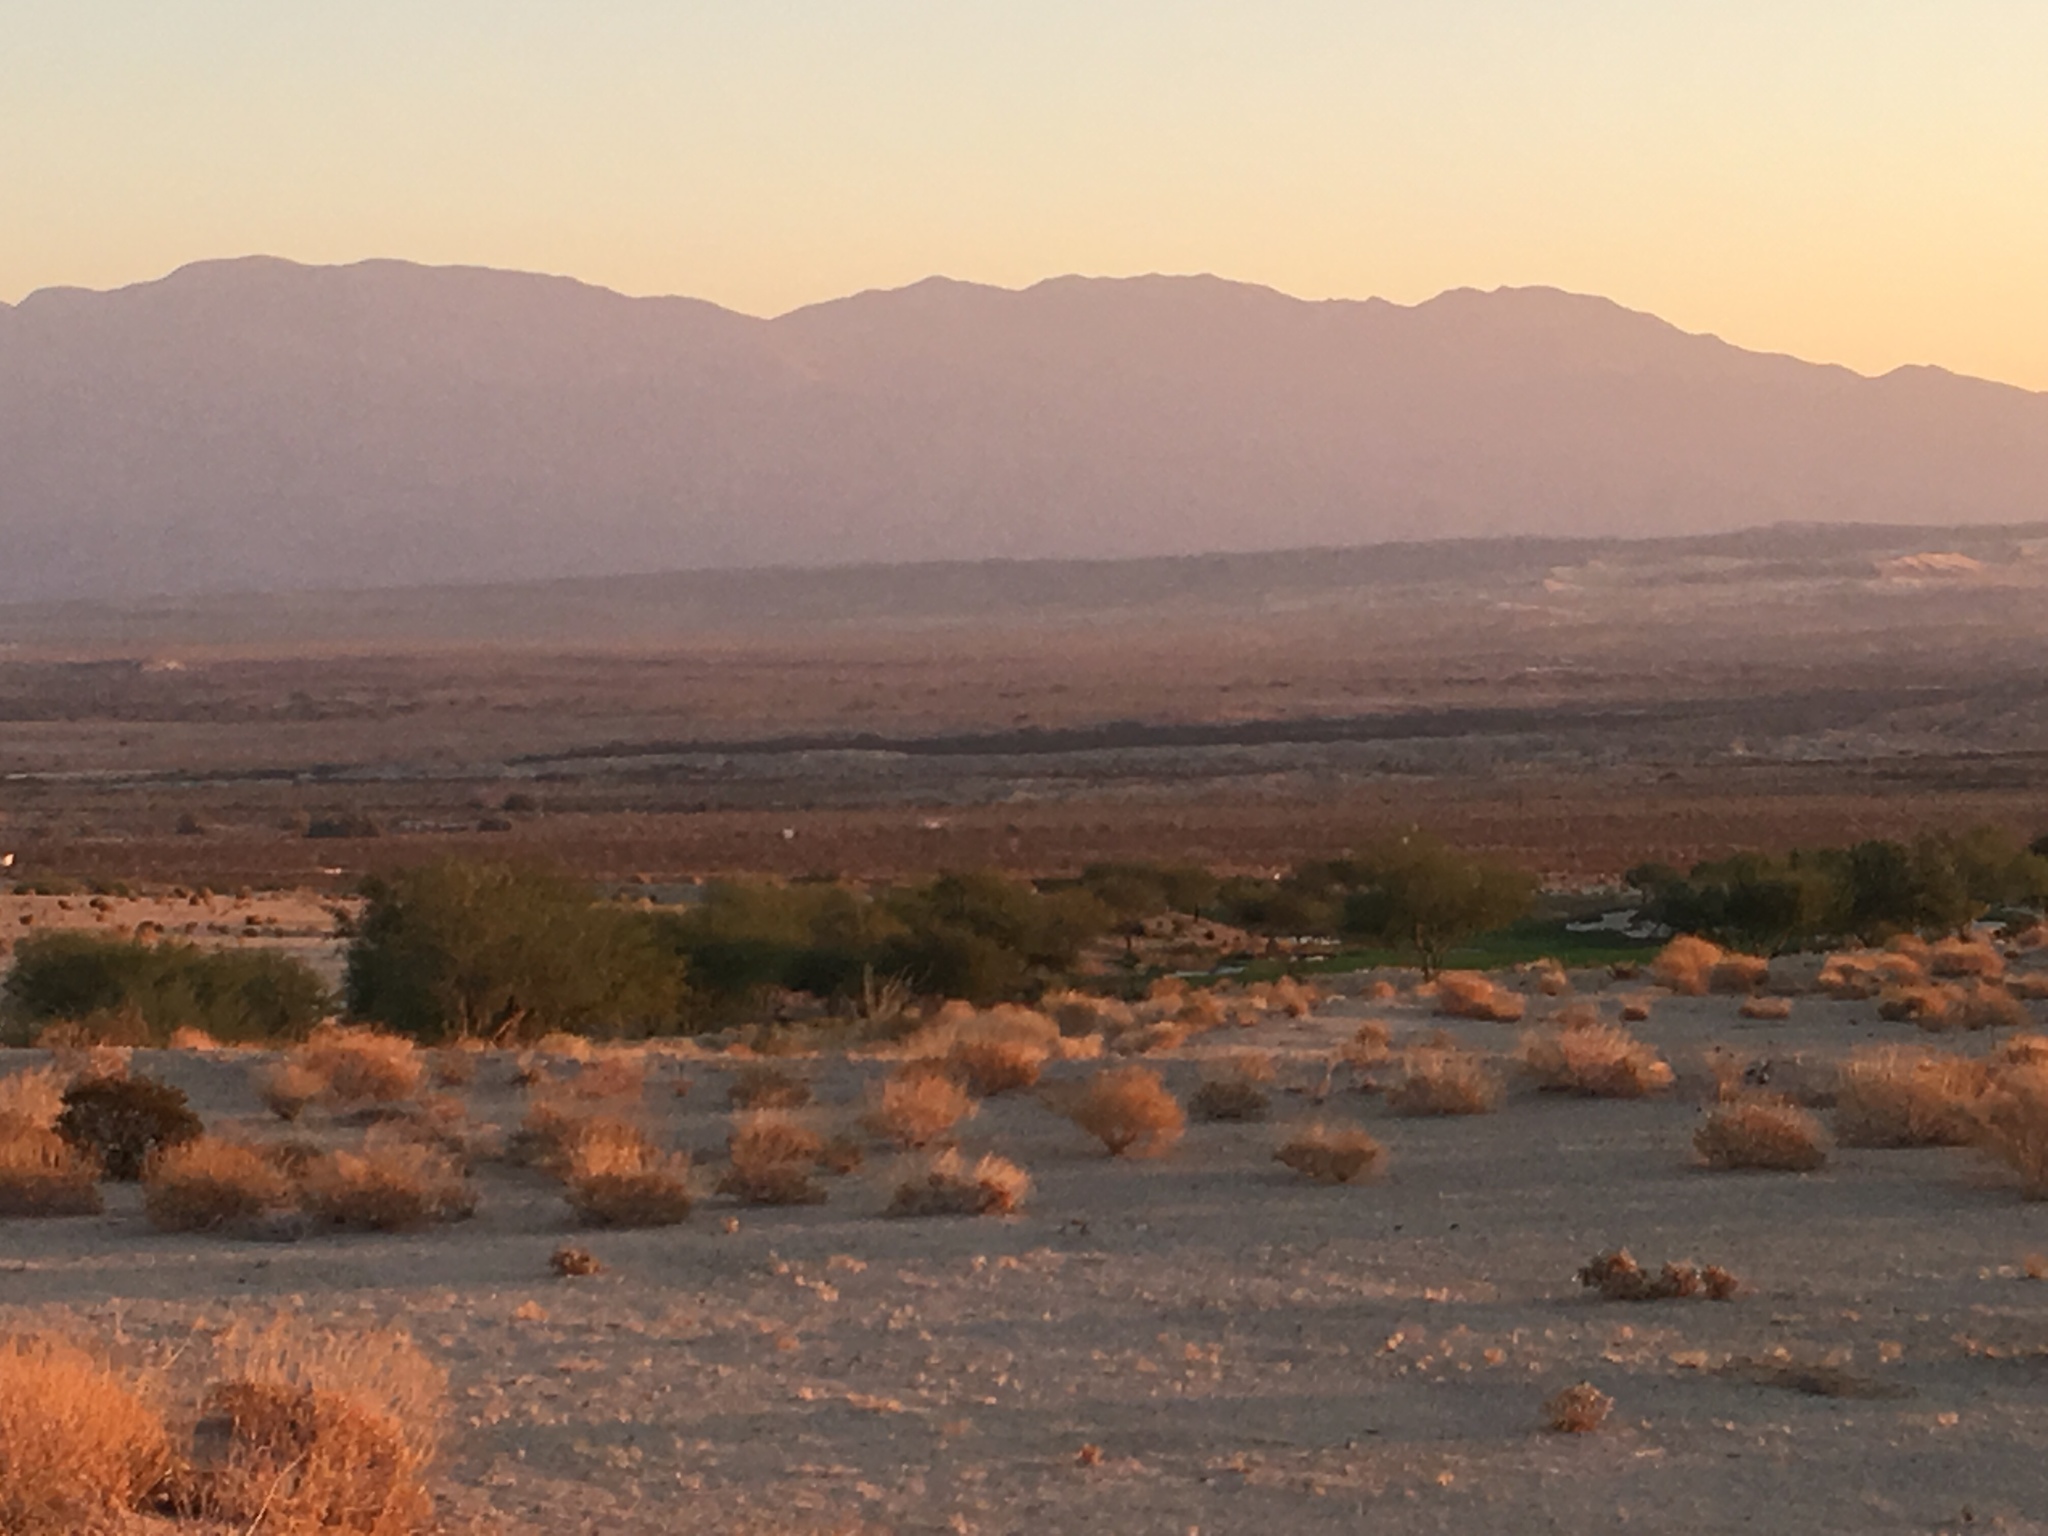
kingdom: Animalia
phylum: Chordata
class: Mammalia
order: Carnivora
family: Canidae
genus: Canis
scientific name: Canis latrans
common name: Coyote
